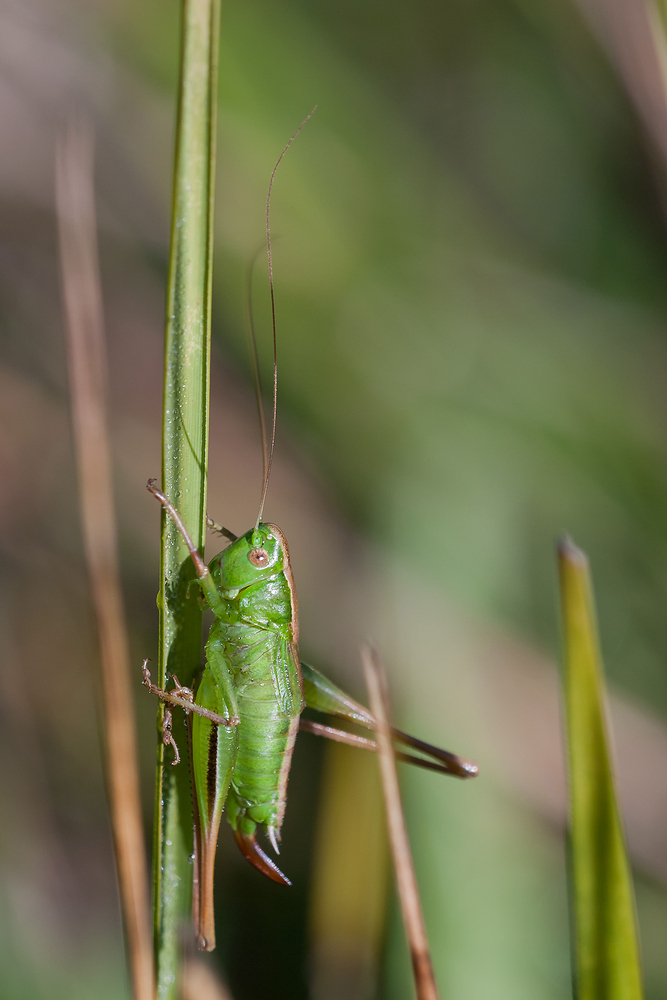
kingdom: Animalia
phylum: Arthropoda
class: Insecta
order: Orthoptera
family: Tettigoniidae
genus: Bicolorana
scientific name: Bicolorana bicolor
